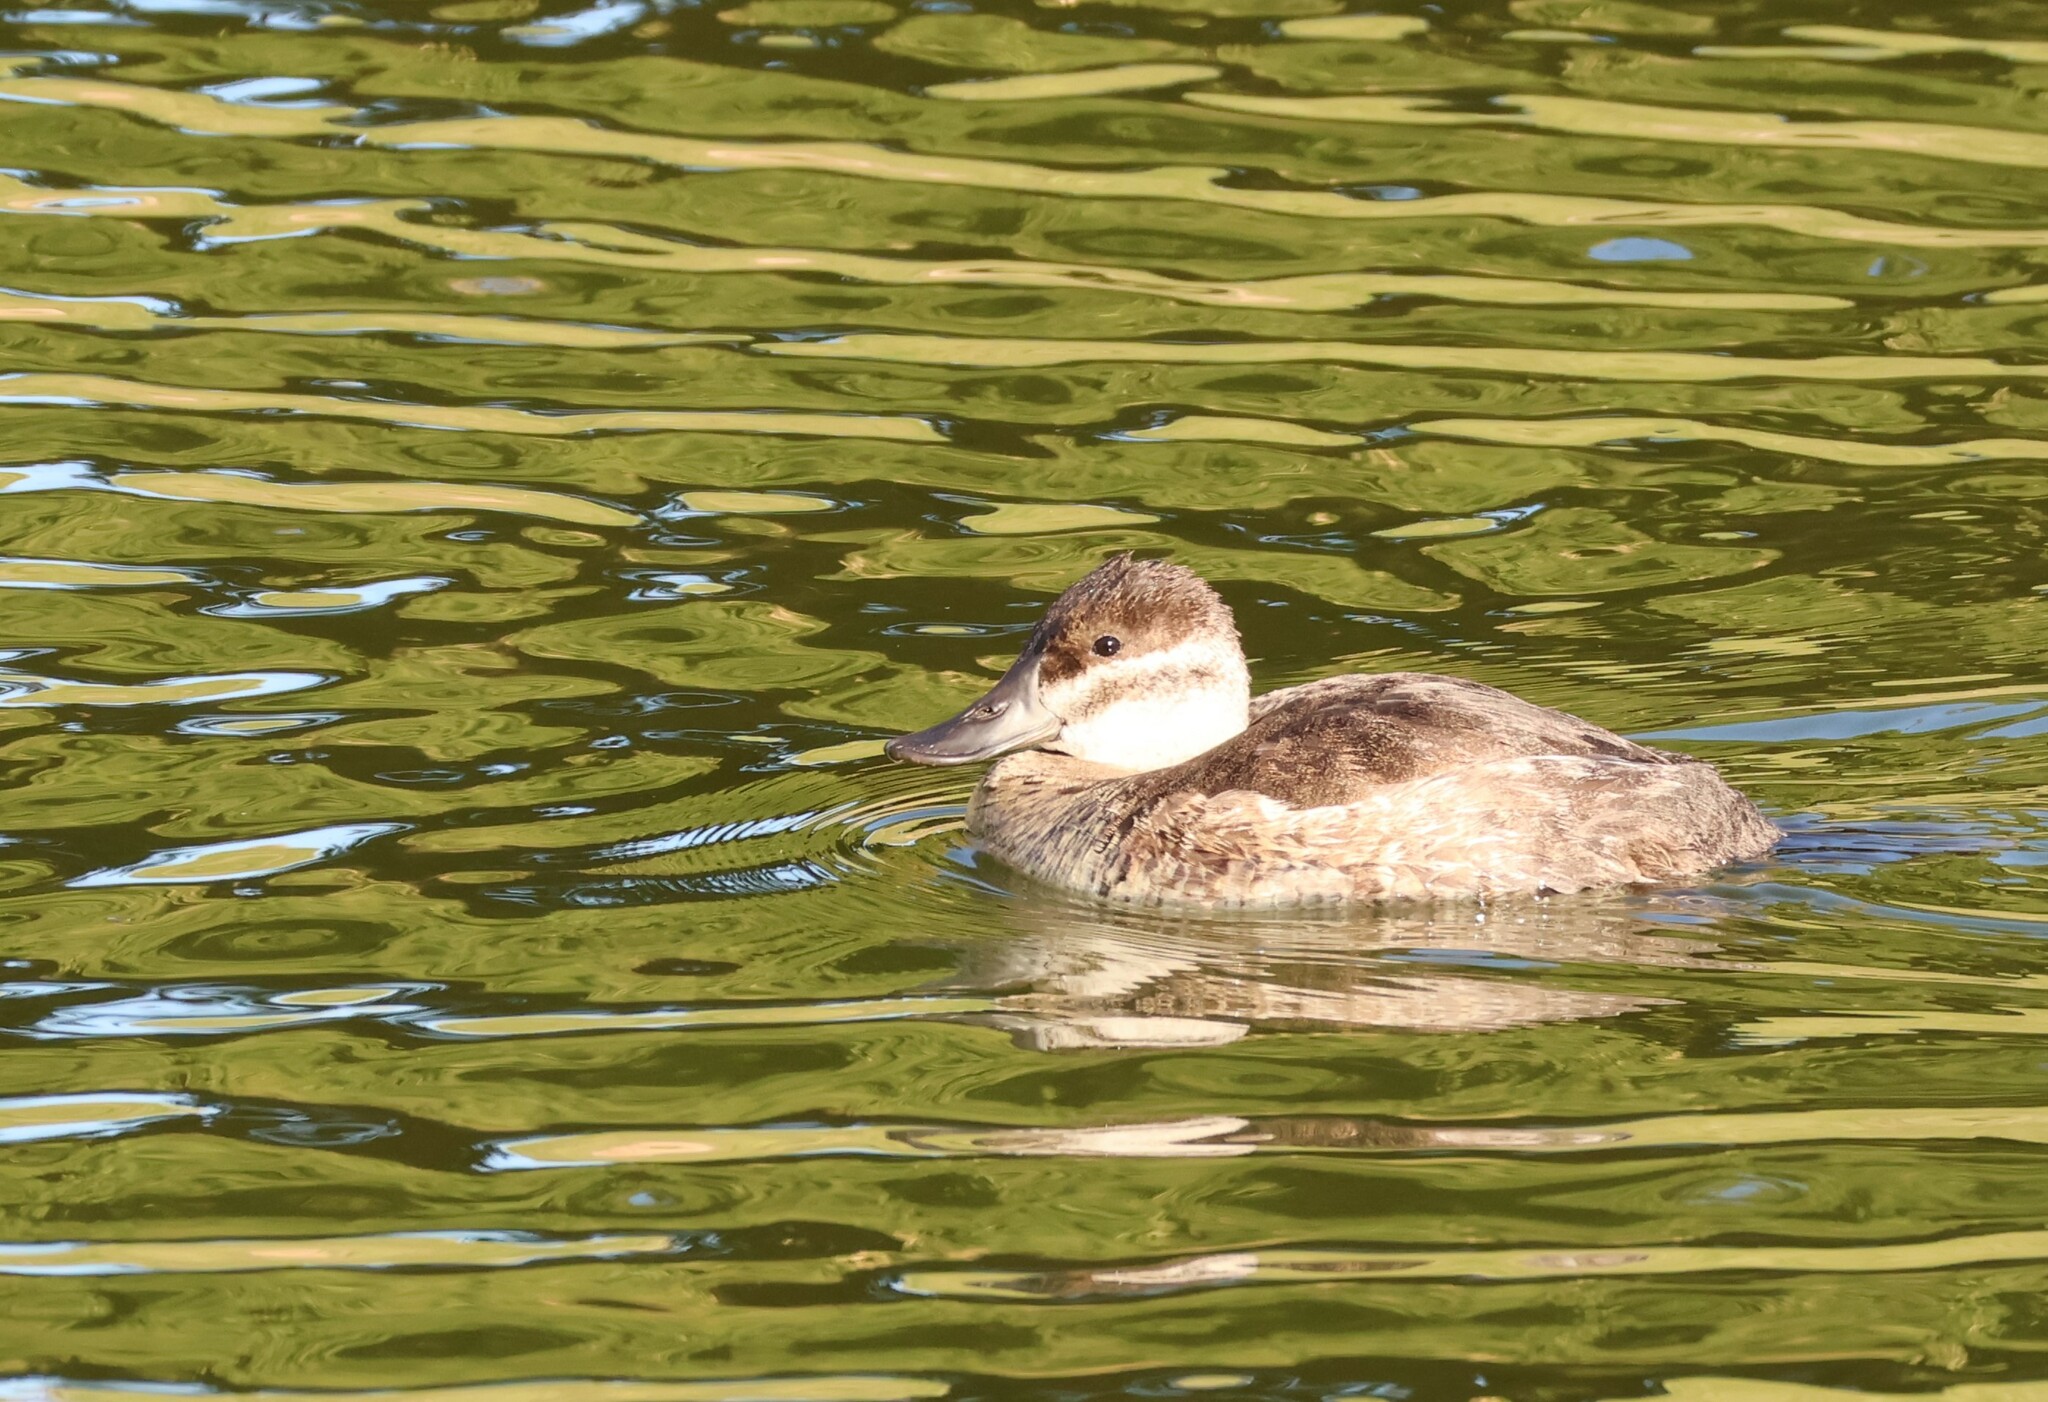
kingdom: Animalia
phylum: Chordata
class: Aves
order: Anseriformes
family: Anatidae
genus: Oxyura
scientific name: Oxyura jamaicensis
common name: Ruddy duck
